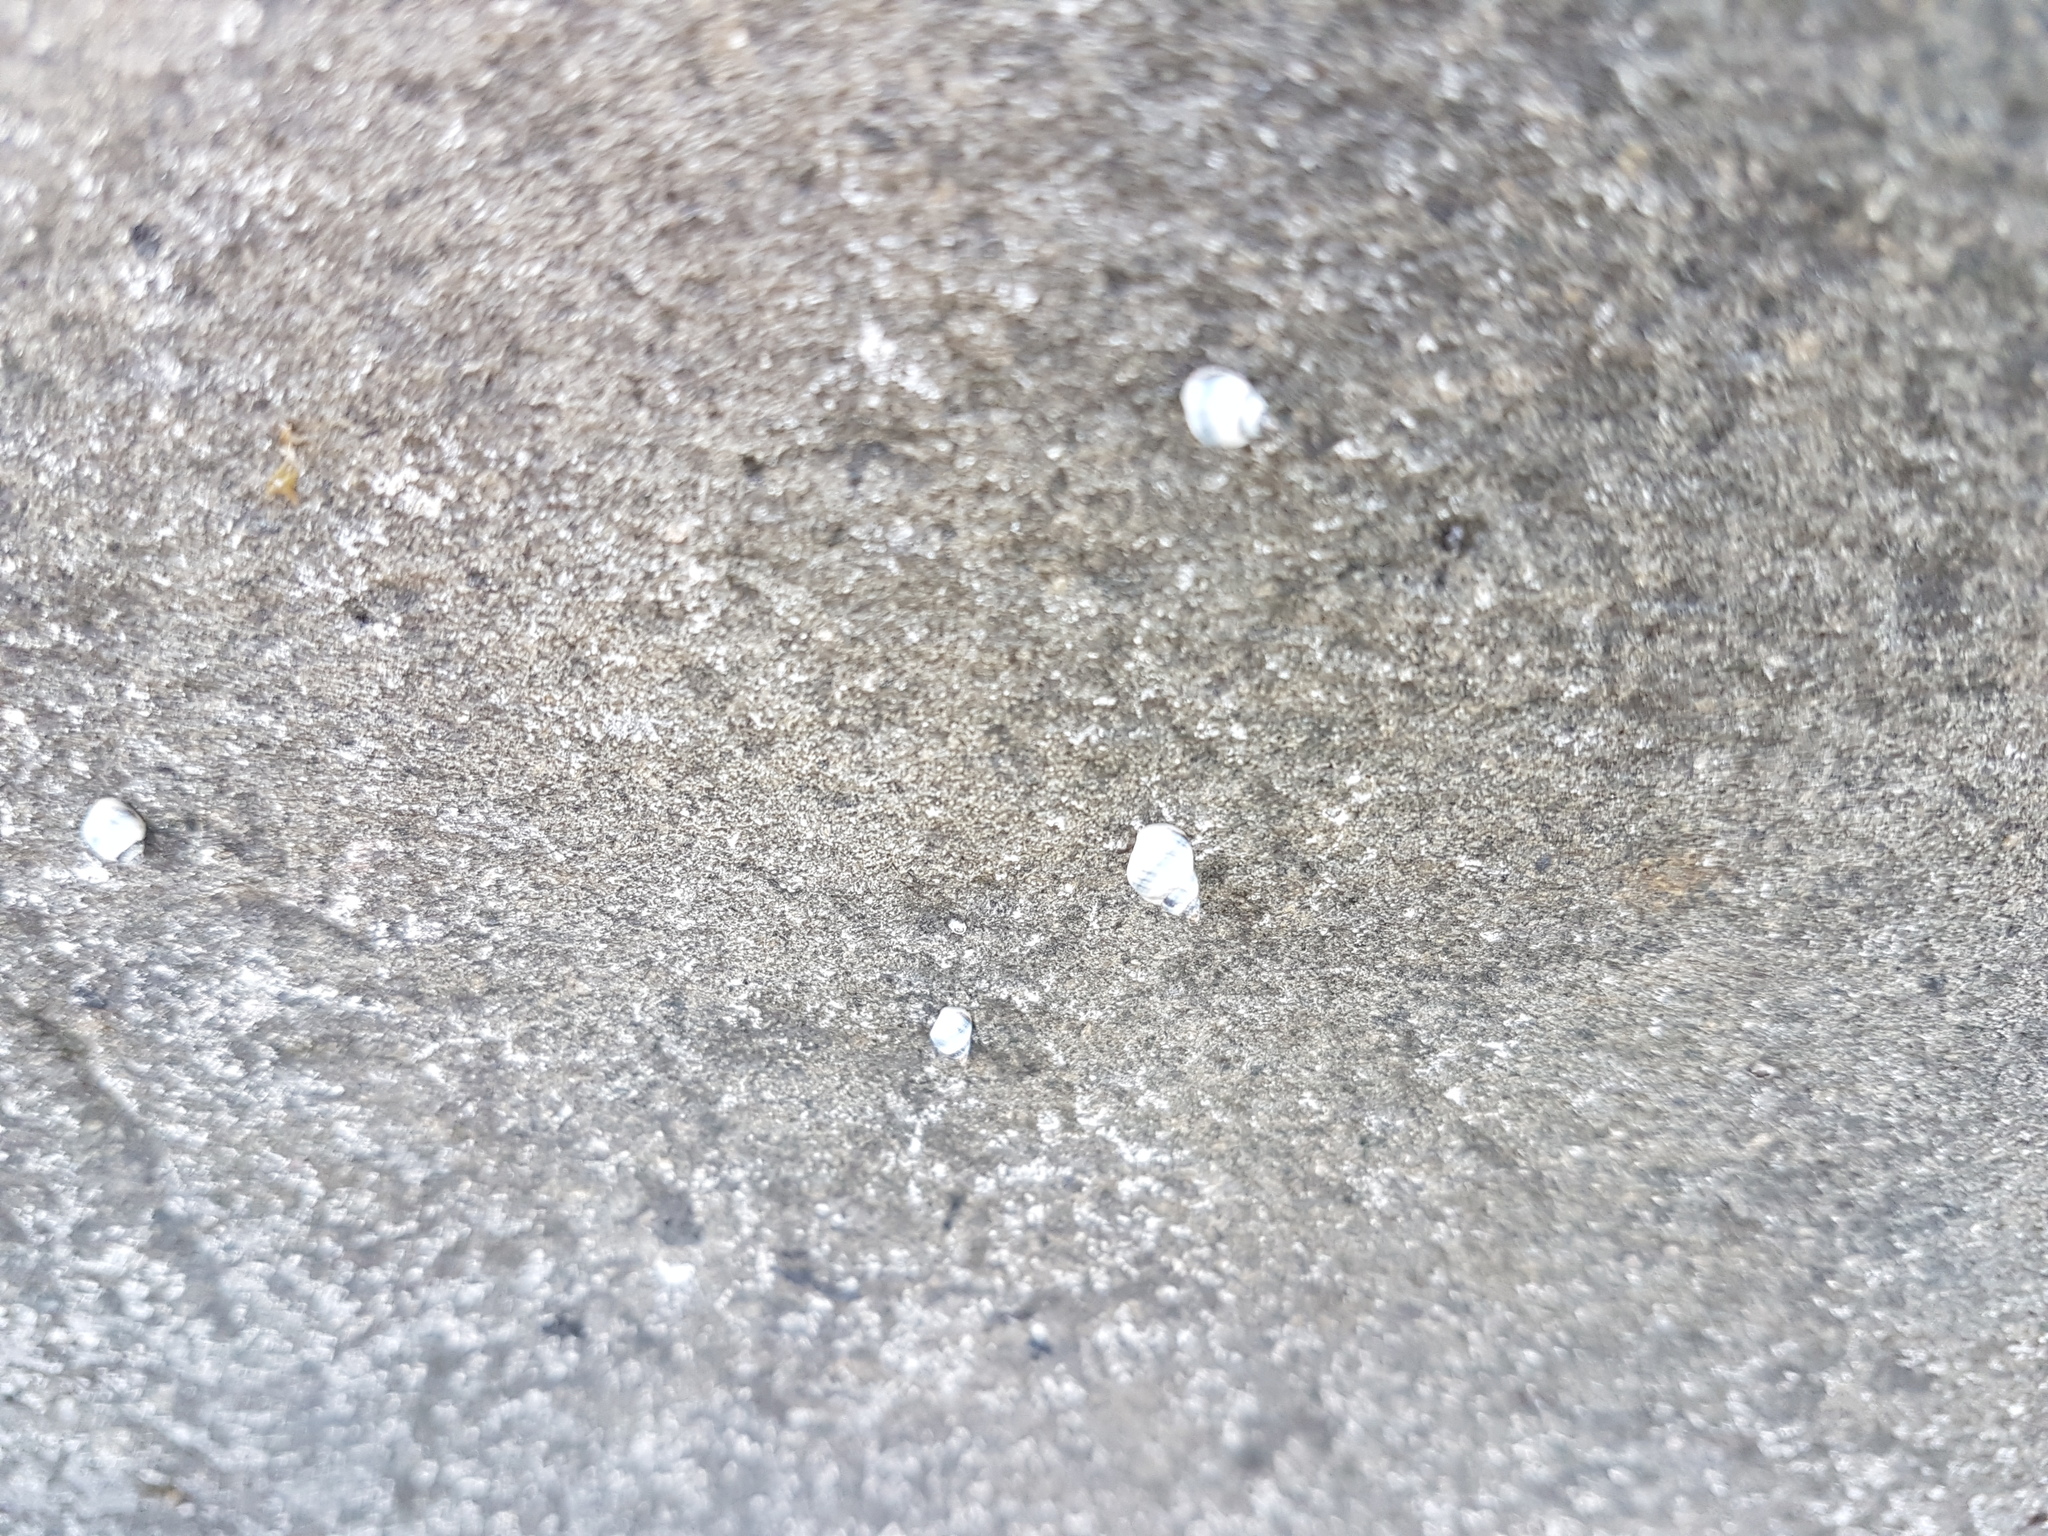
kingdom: Animalia
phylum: Mollusca
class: Gastropoda
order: Littorinimorpha
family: Littorinidae
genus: Austrolittorina
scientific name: Austrolittorina antipodum
